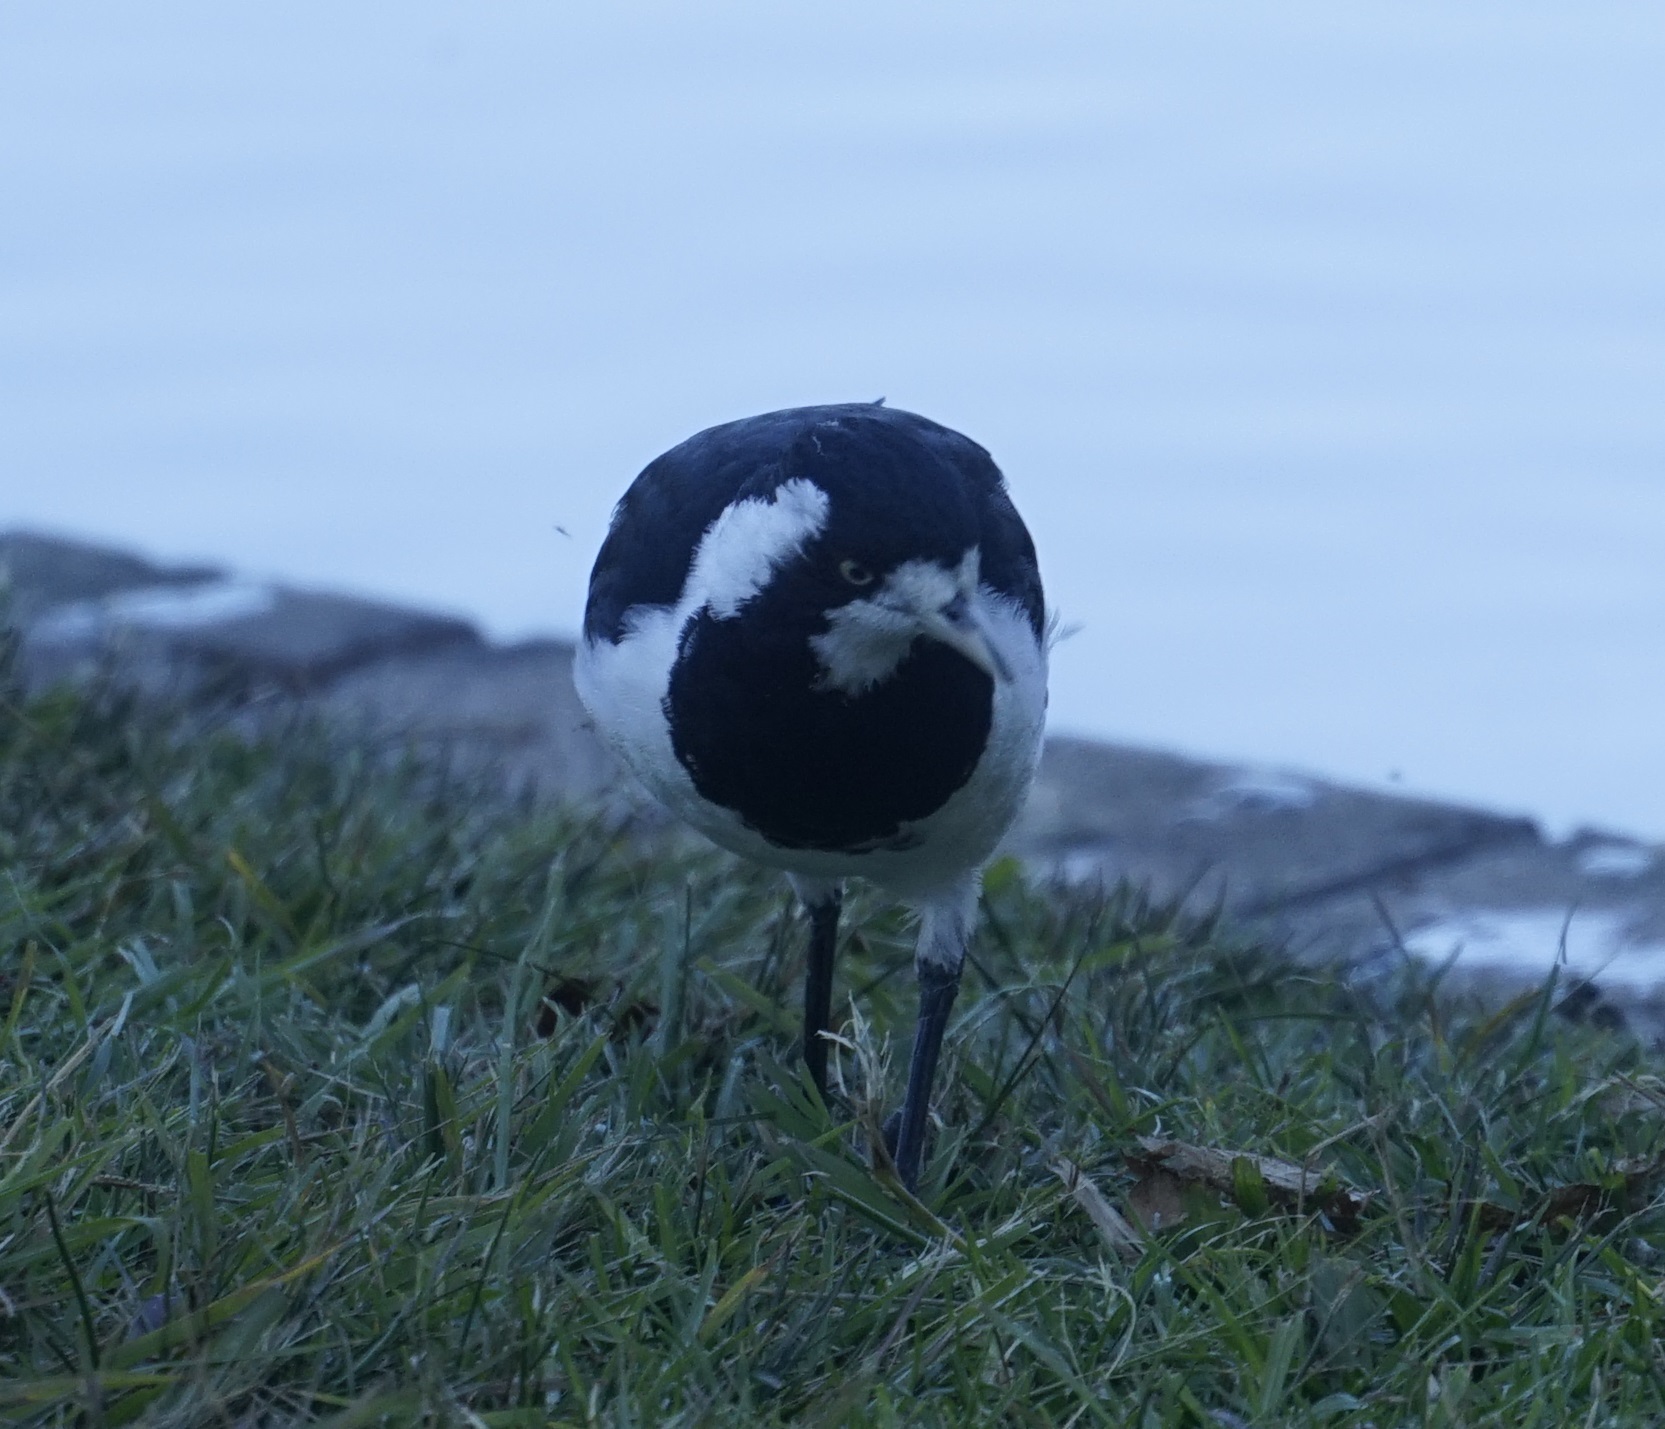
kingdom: Animalia
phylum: Chordata
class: Aves
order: Passeriformes
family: Monarchidae
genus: Grallina
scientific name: Grallina cyanoleuca
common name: Magpie-lark
